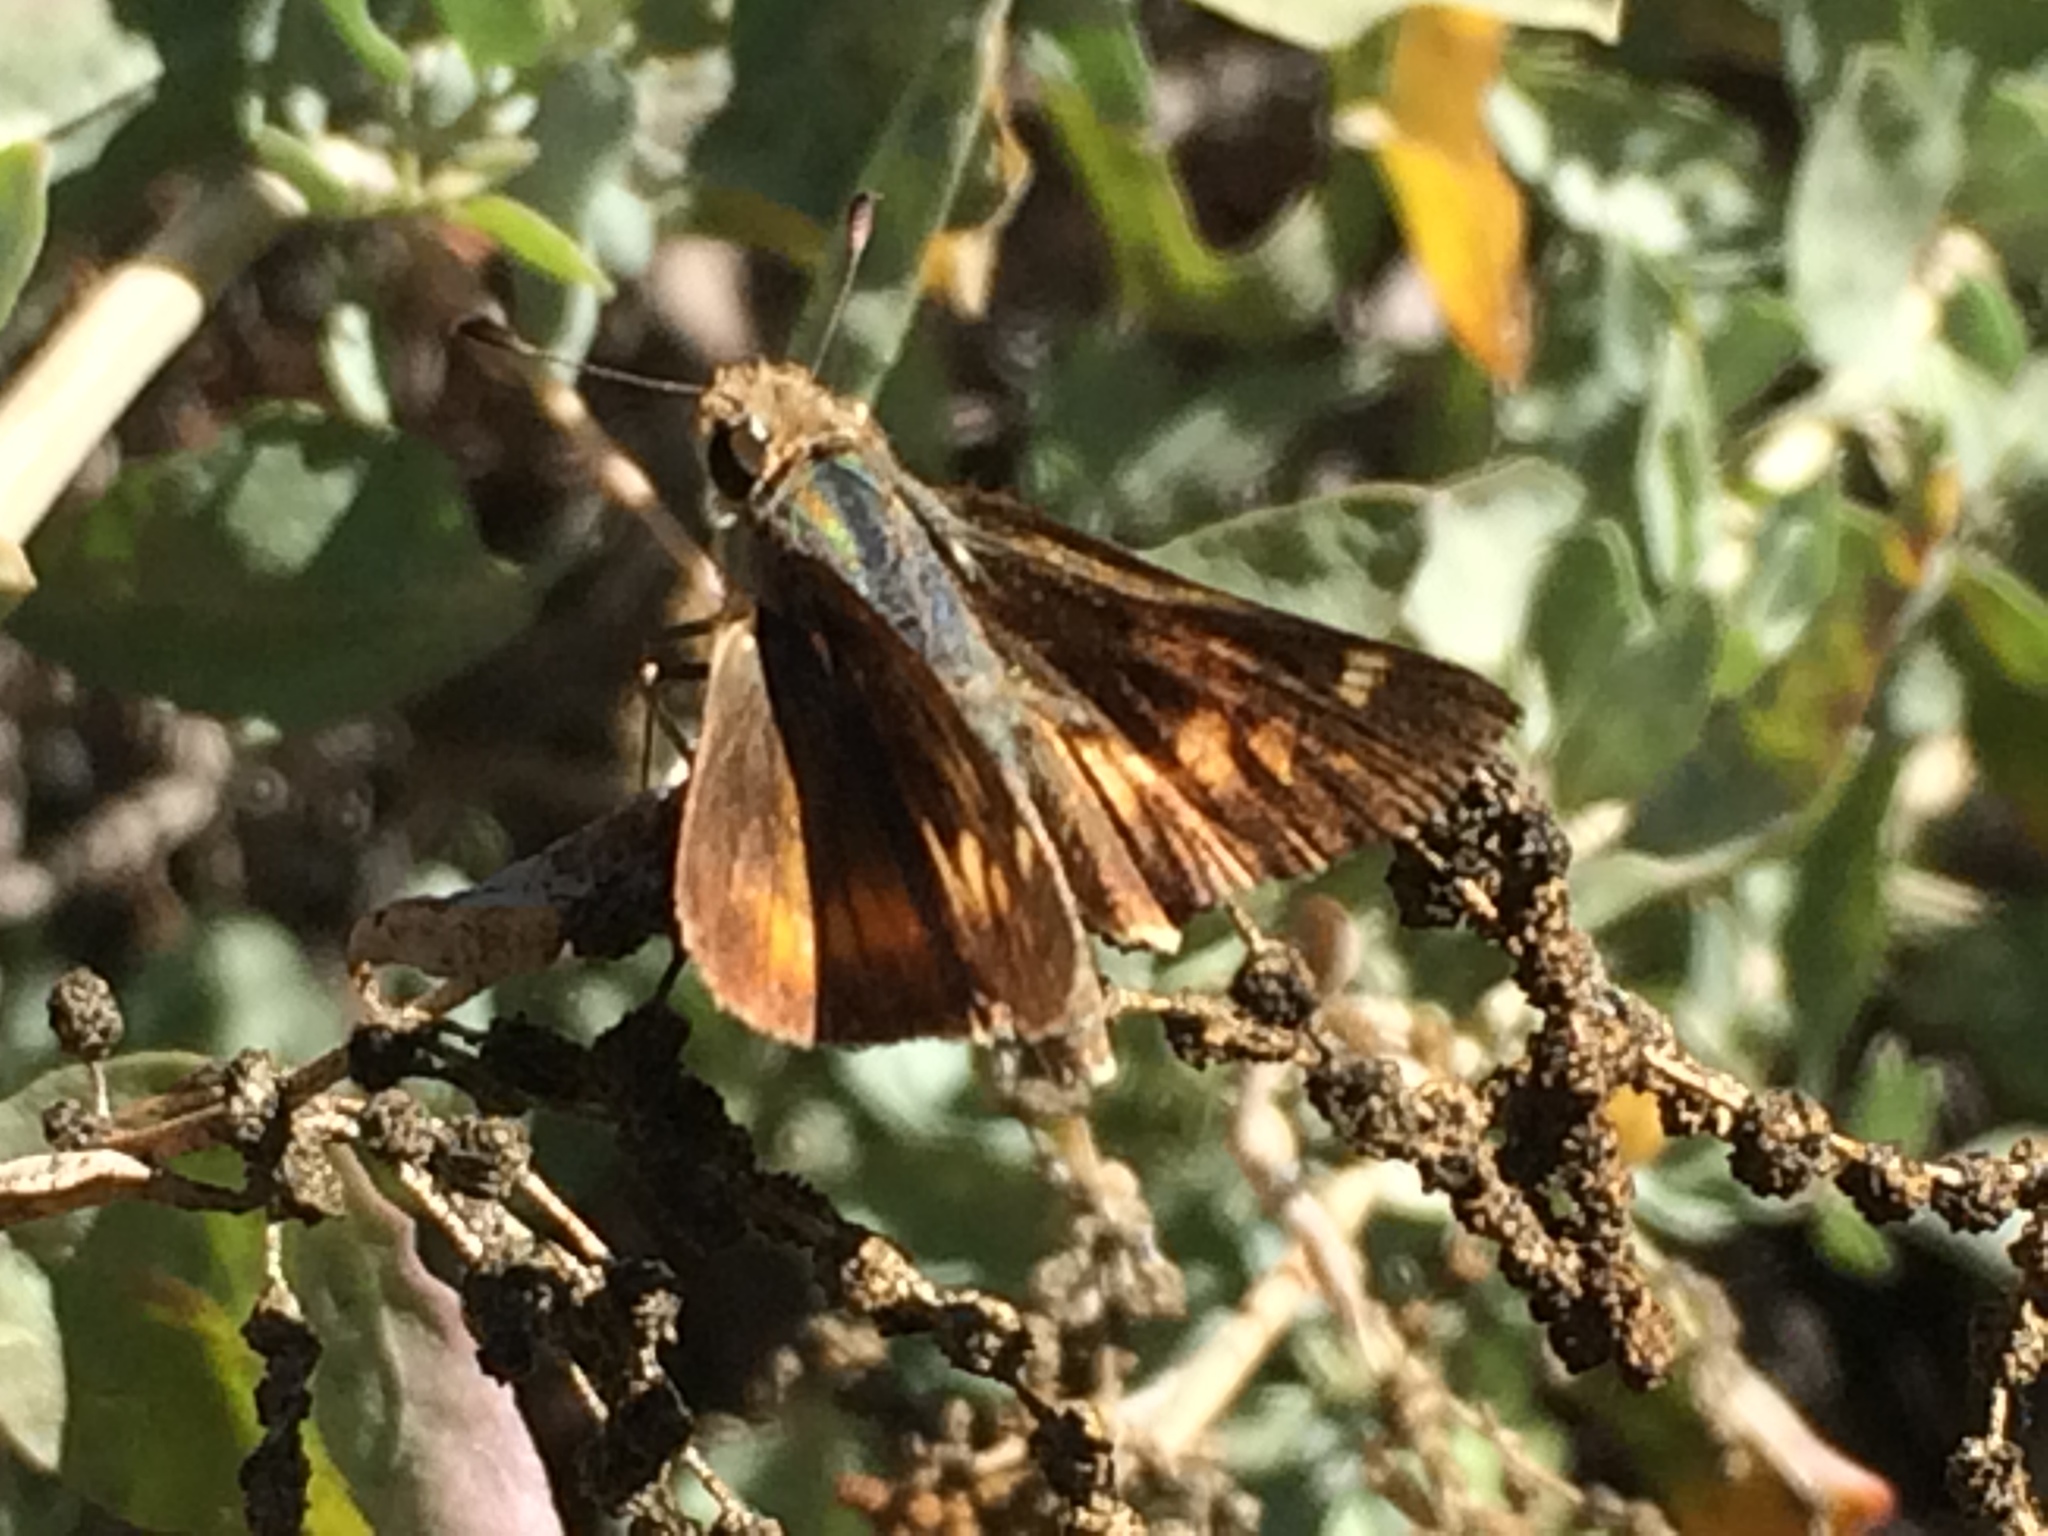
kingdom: Animalia
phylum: Arthropoda
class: Insecta
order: Lepidoptera
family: Hesperiidae
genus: Lon
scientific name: Lon melane
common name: Umber skipper
